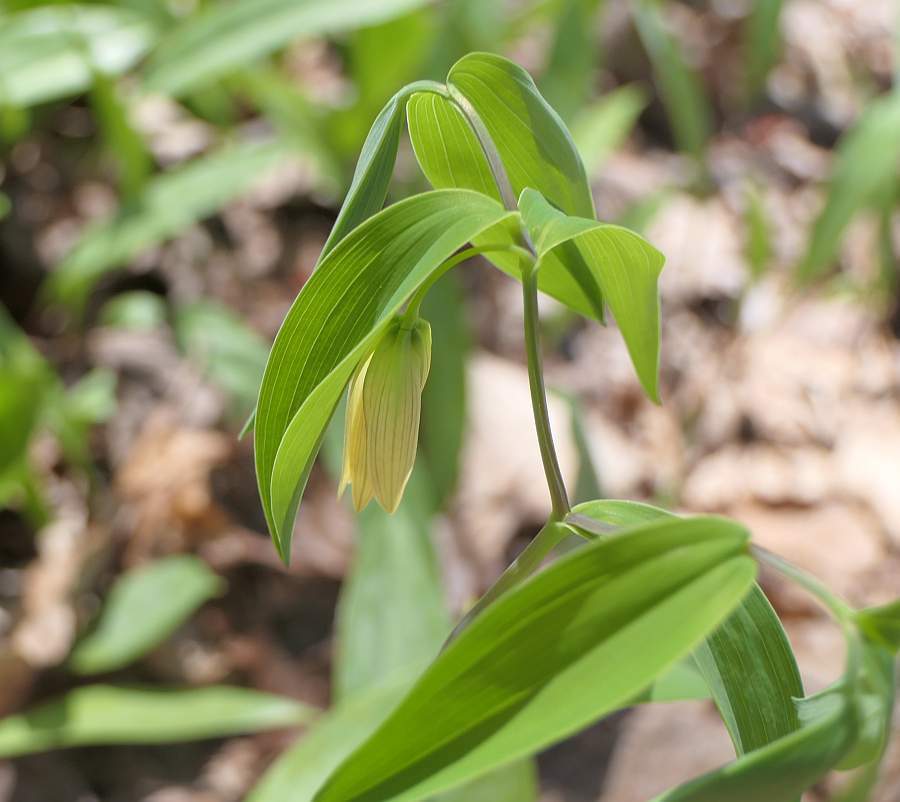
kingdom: Plantae
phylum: Tracheophyta
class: Liliopsida
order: Liliales
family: Colchicaceae
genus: Uvularia
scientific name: Uvularia sessilifolia
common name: Straw-lily
